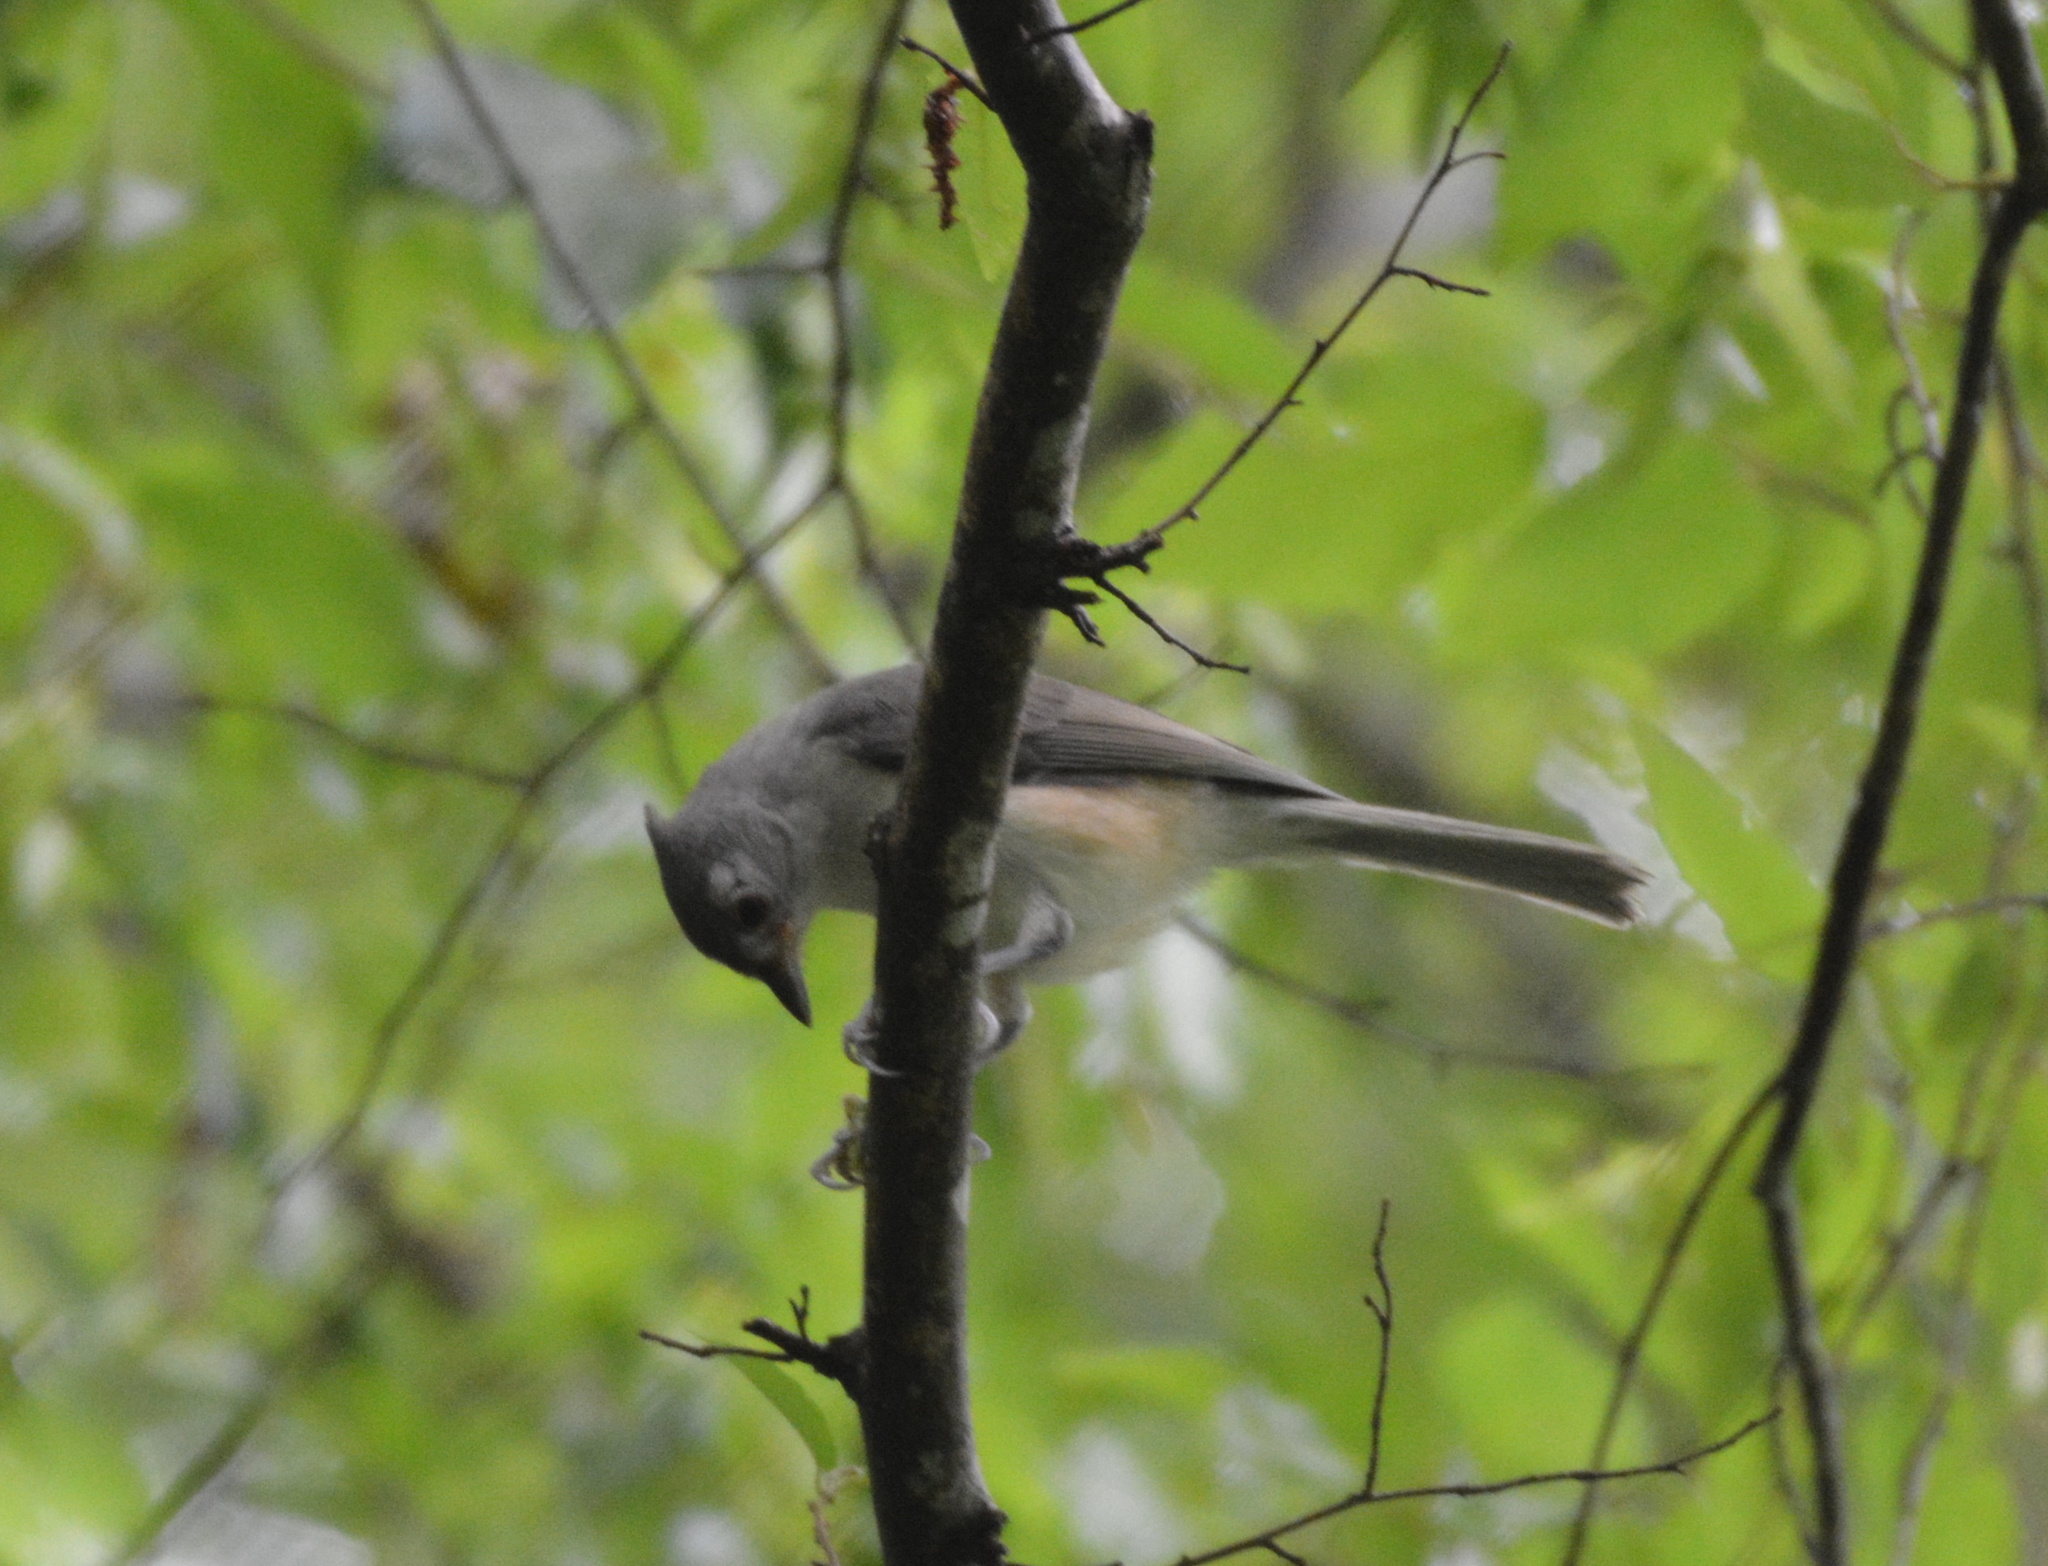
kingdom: Animalia
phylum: Chordata
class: Aves
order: Passeriformes
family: Paridae
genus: Baeolophus
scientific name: Baeolophus bicolor
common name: Tufted titmouse
